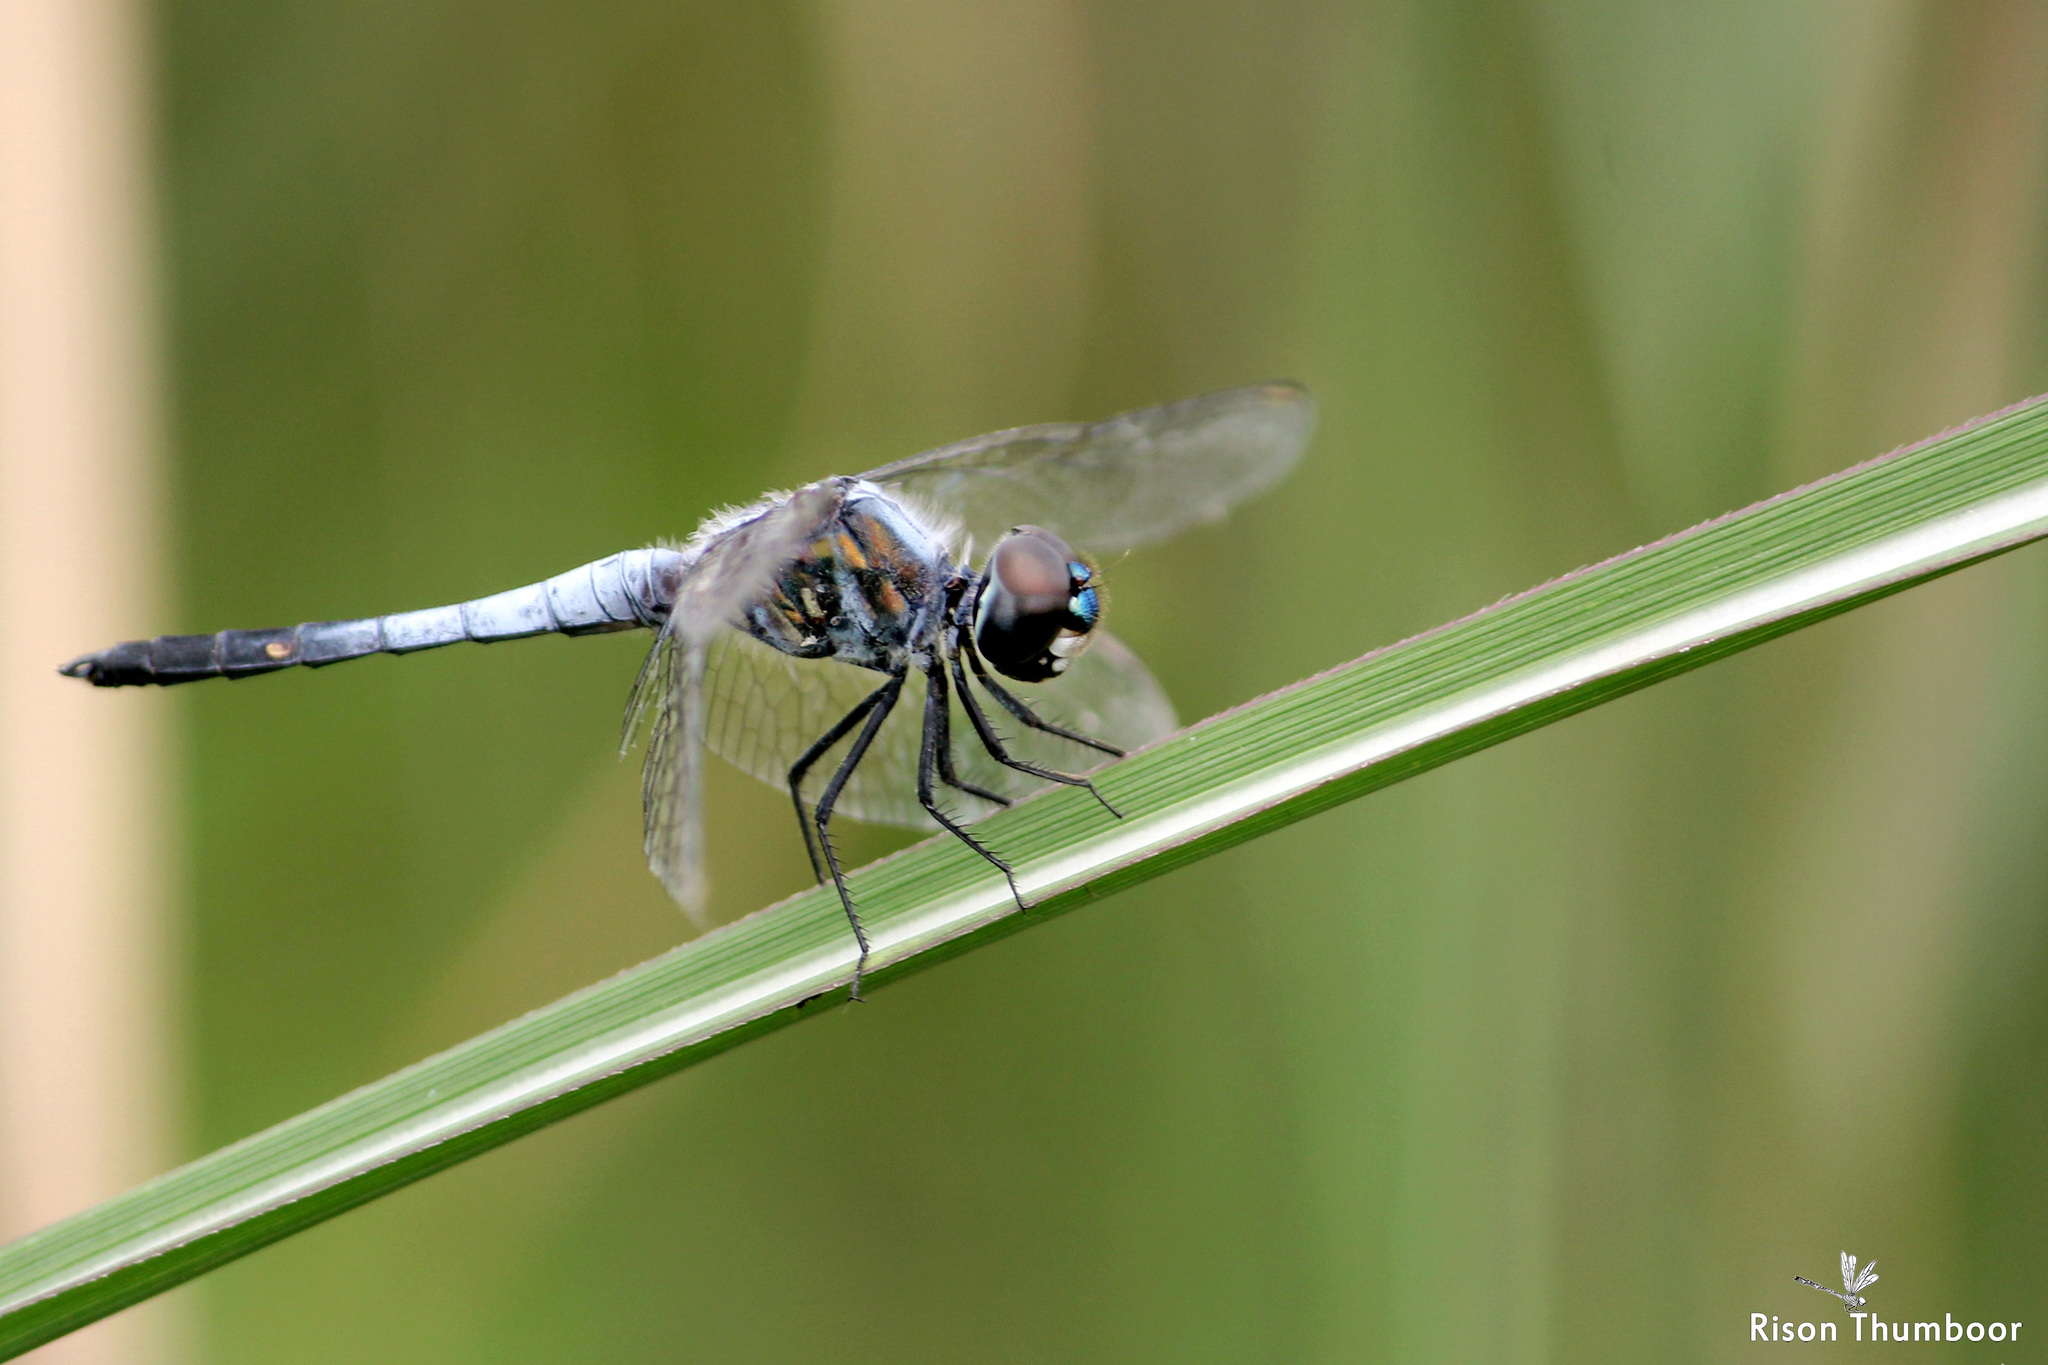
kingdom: Animalia
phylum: Arthropoda
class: Insecta
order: Odonata
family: Libellulidae
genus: Brachydiplax
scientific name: Brachydiplax sobrina
